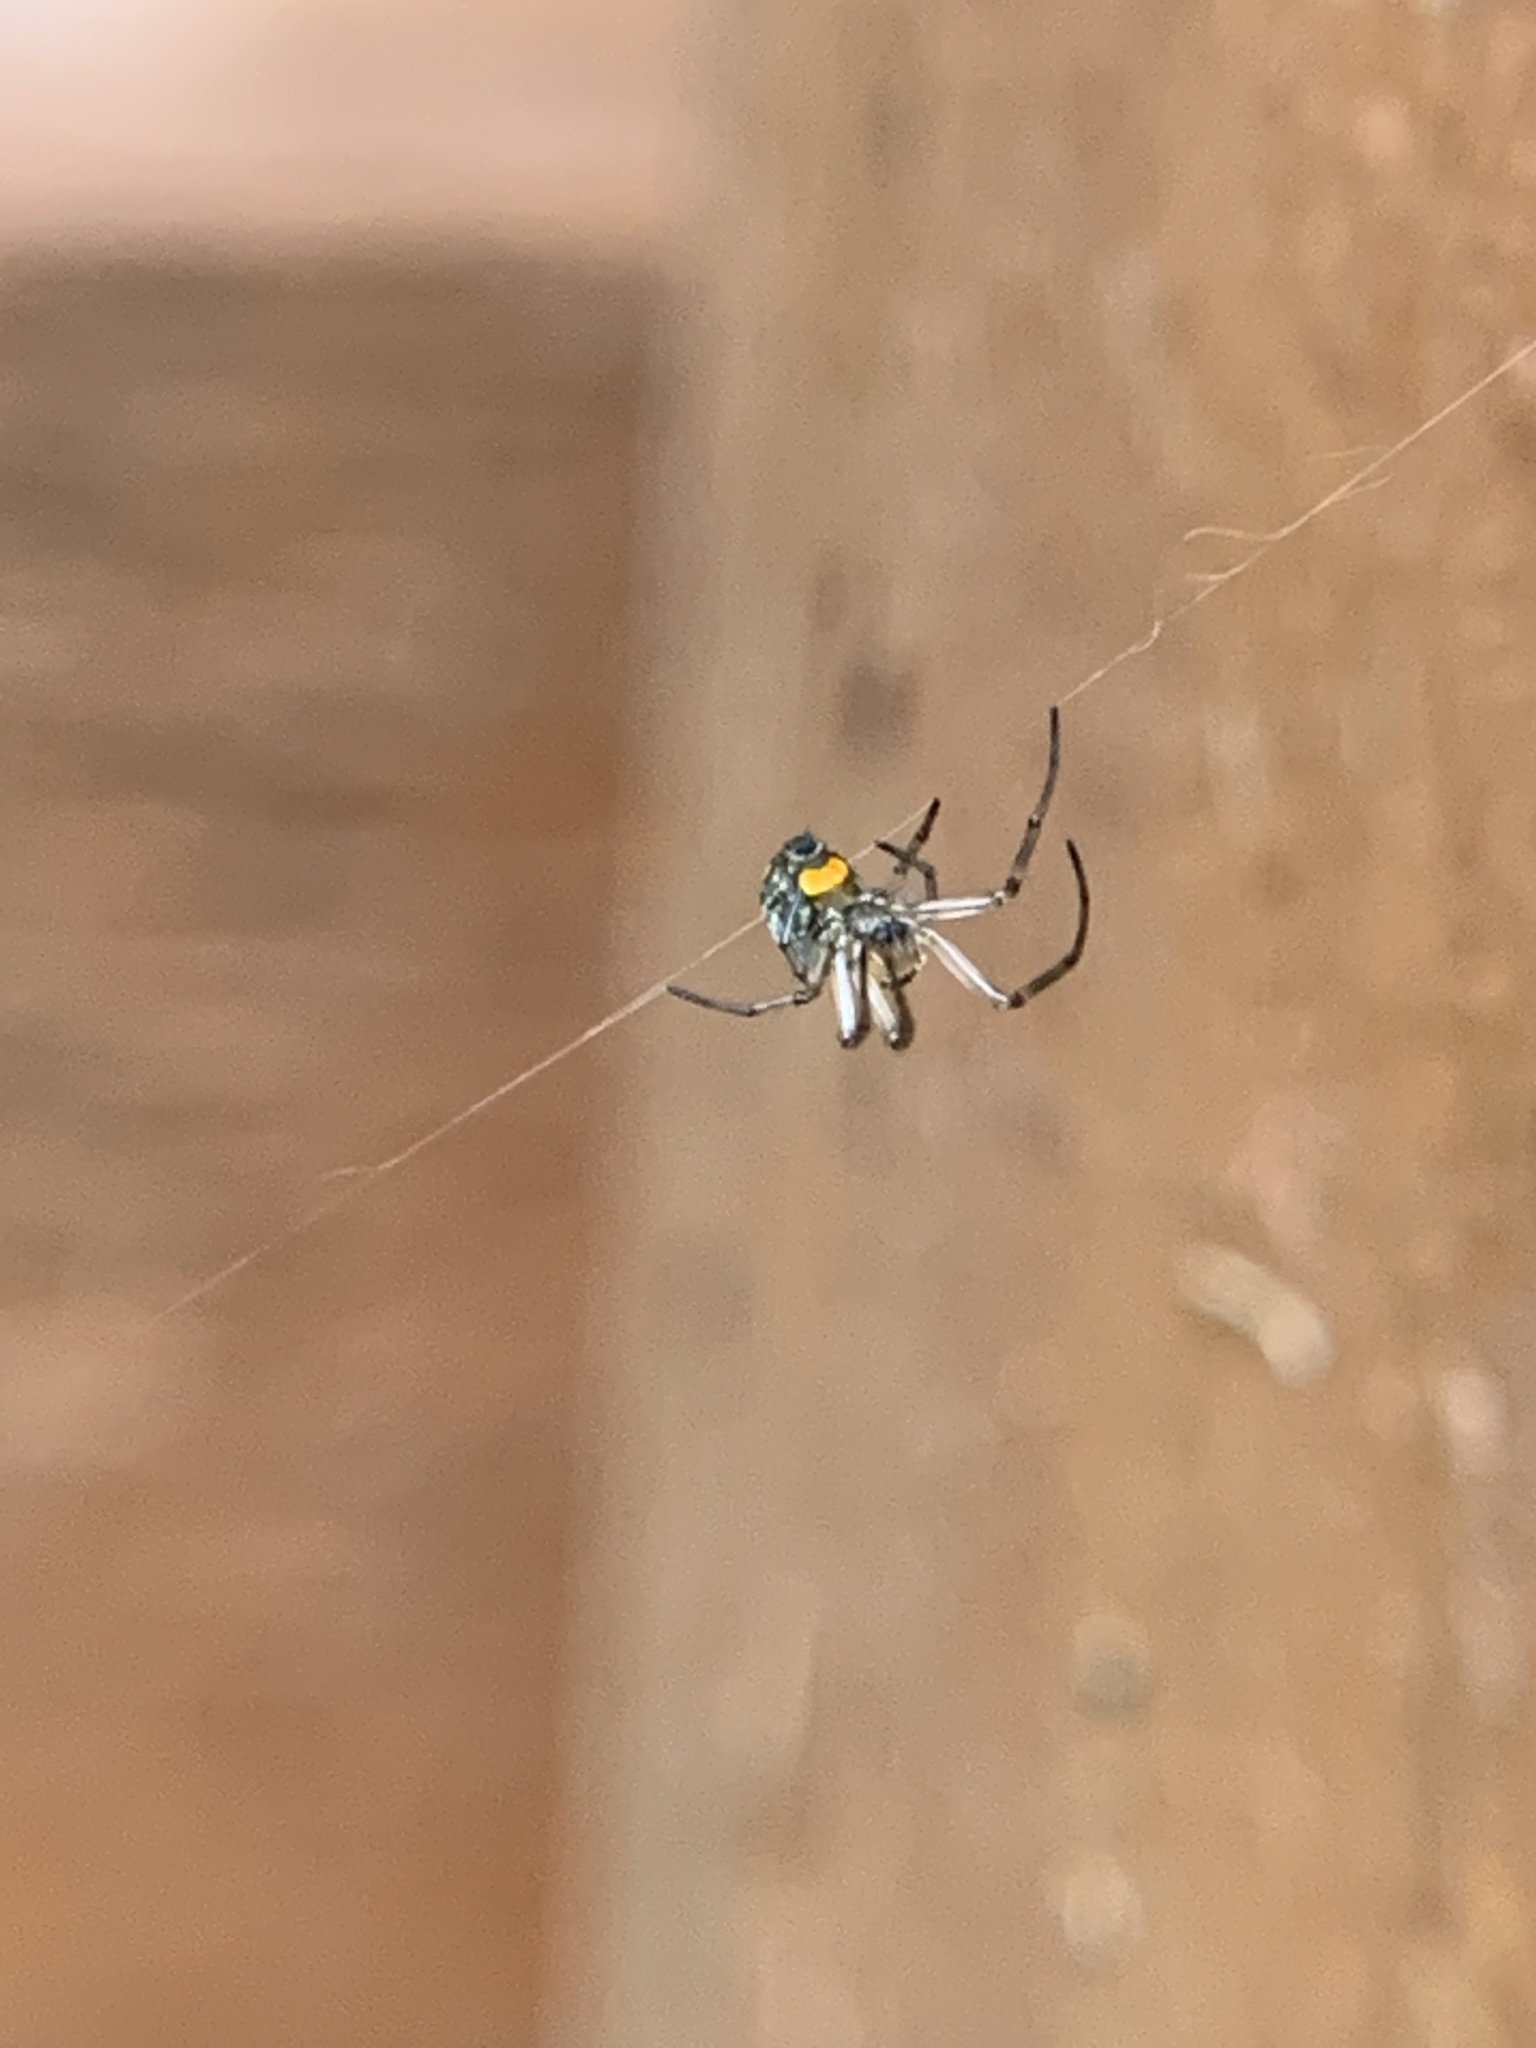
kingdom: Animalia
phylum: Arthropoda
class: Arachnida
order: Araneae
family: Tetragnathidae
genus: Leucauge
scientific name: Leucauge venusta
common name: Longjawed orb weavers
